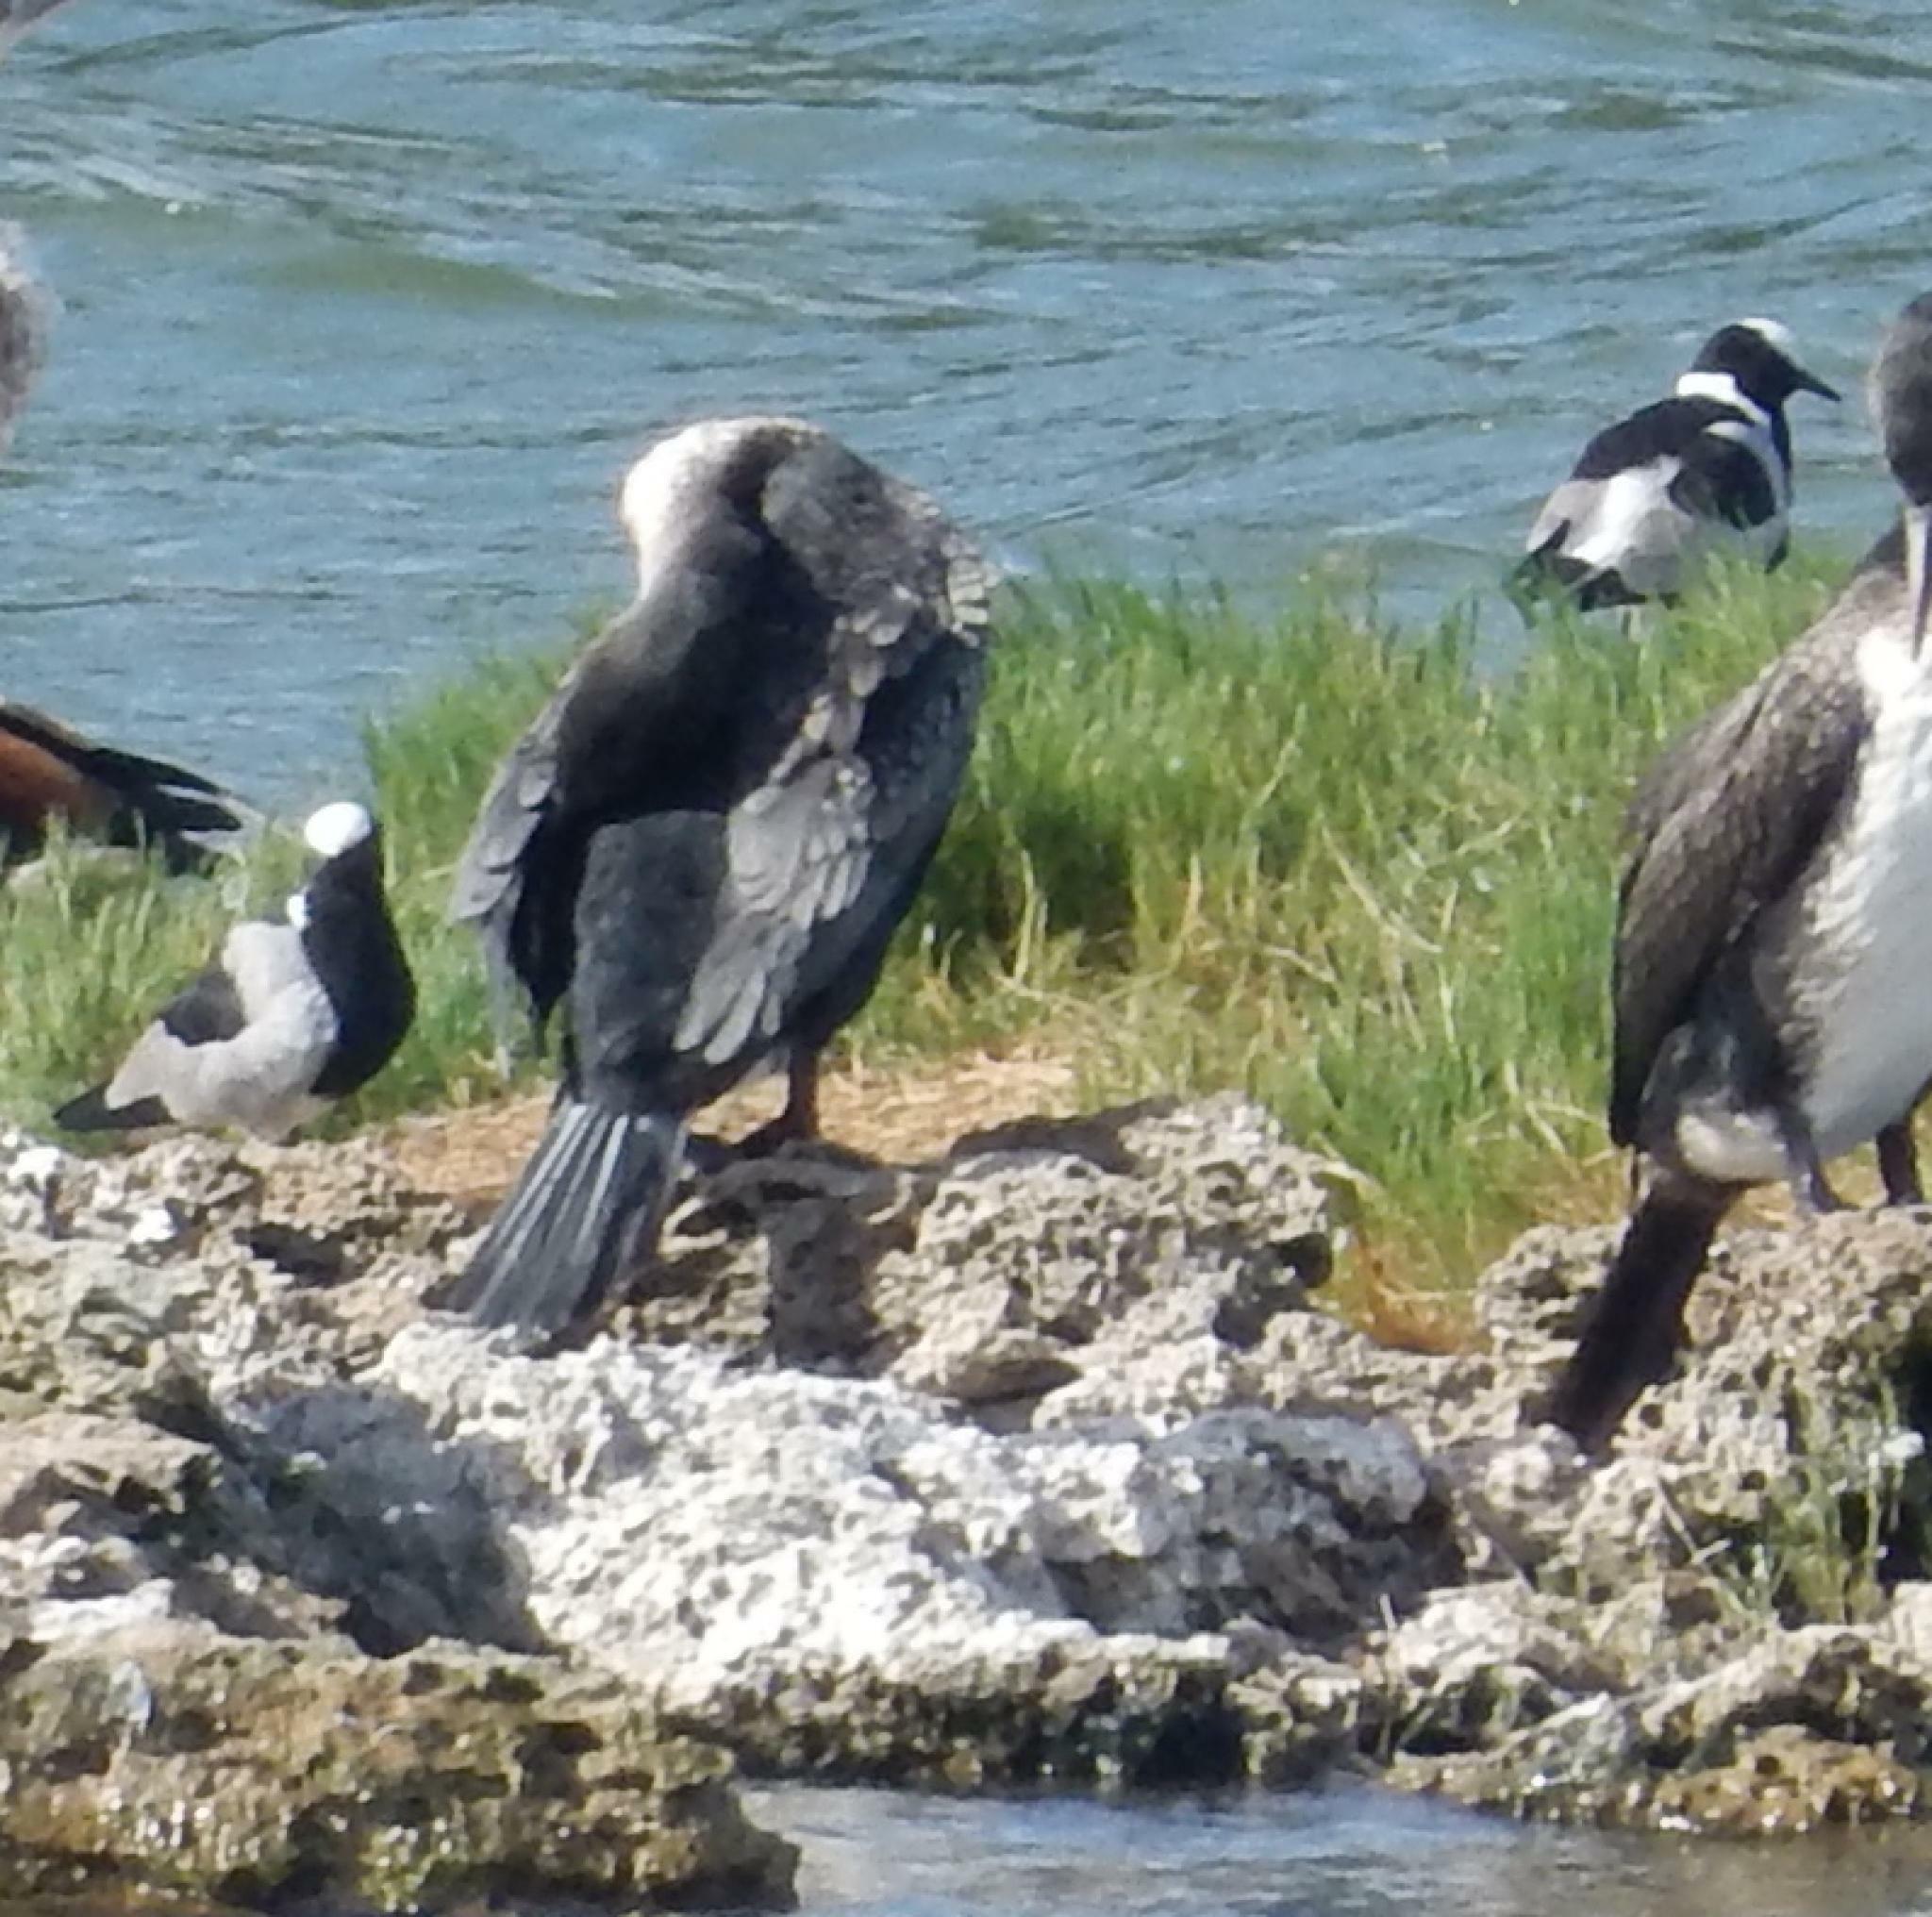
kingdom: Animalia
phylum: Chordata
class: Aves
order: Charadriiformes
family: Charadriidae
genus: Vanellus
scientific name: Vanellus armatus
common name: Blacksmith lapwing
